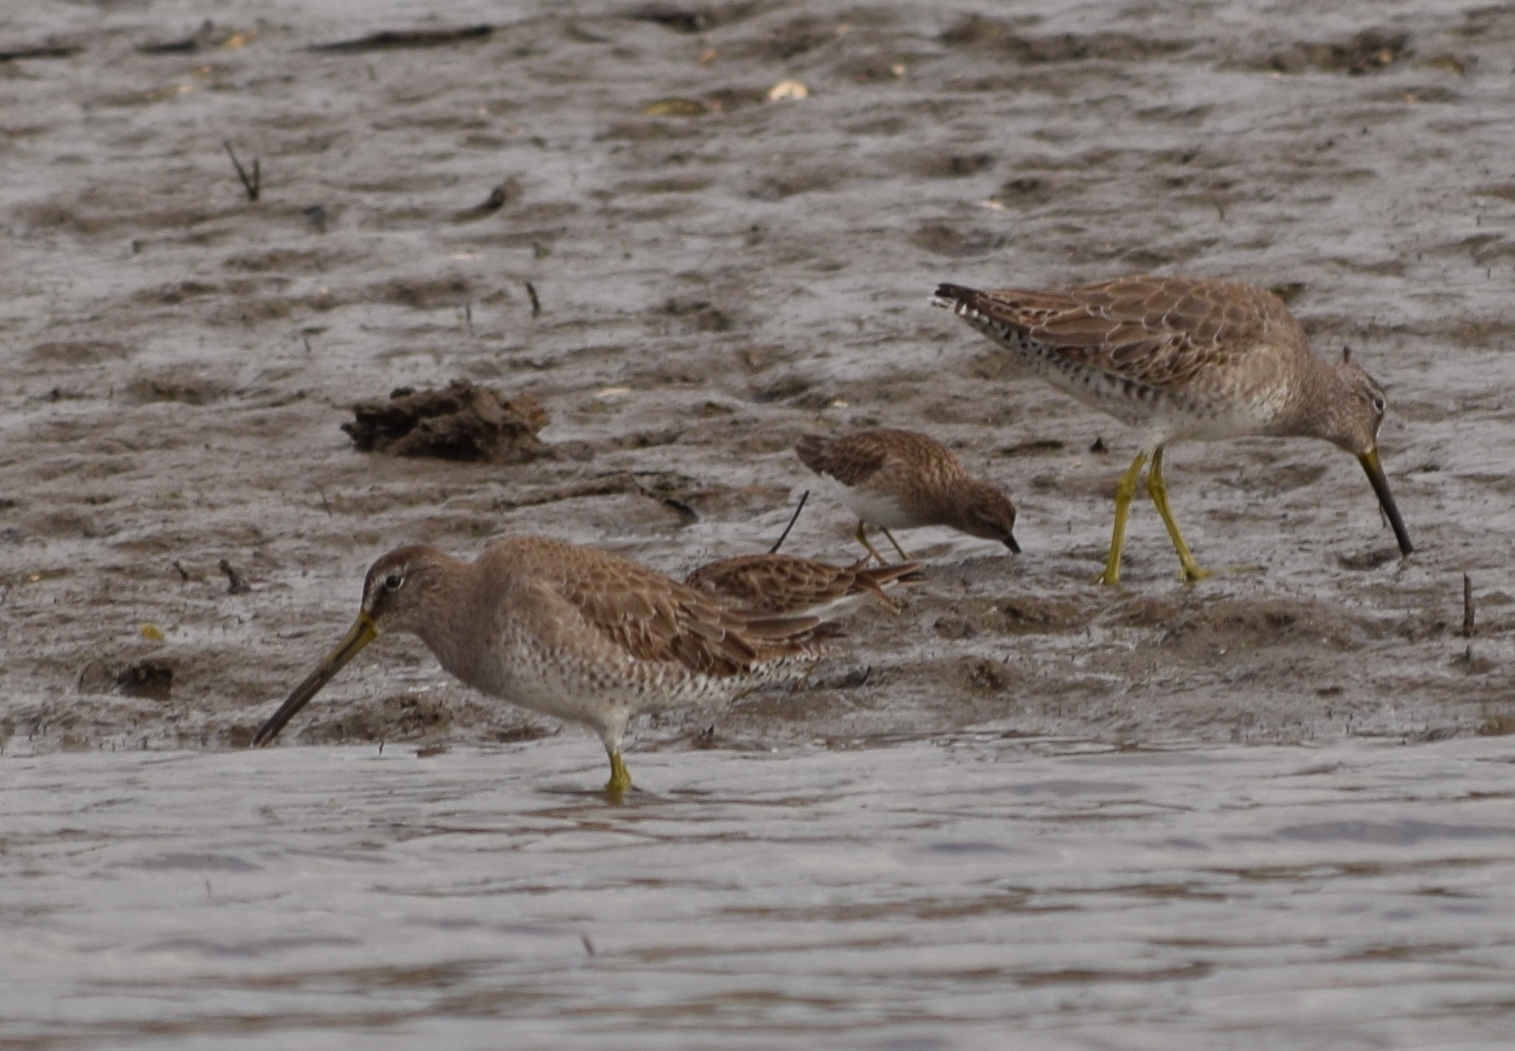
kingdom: Animalia
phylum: Chordata
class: Aves
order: Charadriiformes
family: Scolopacidae
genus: Limnodromus
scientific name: Limnodromus
